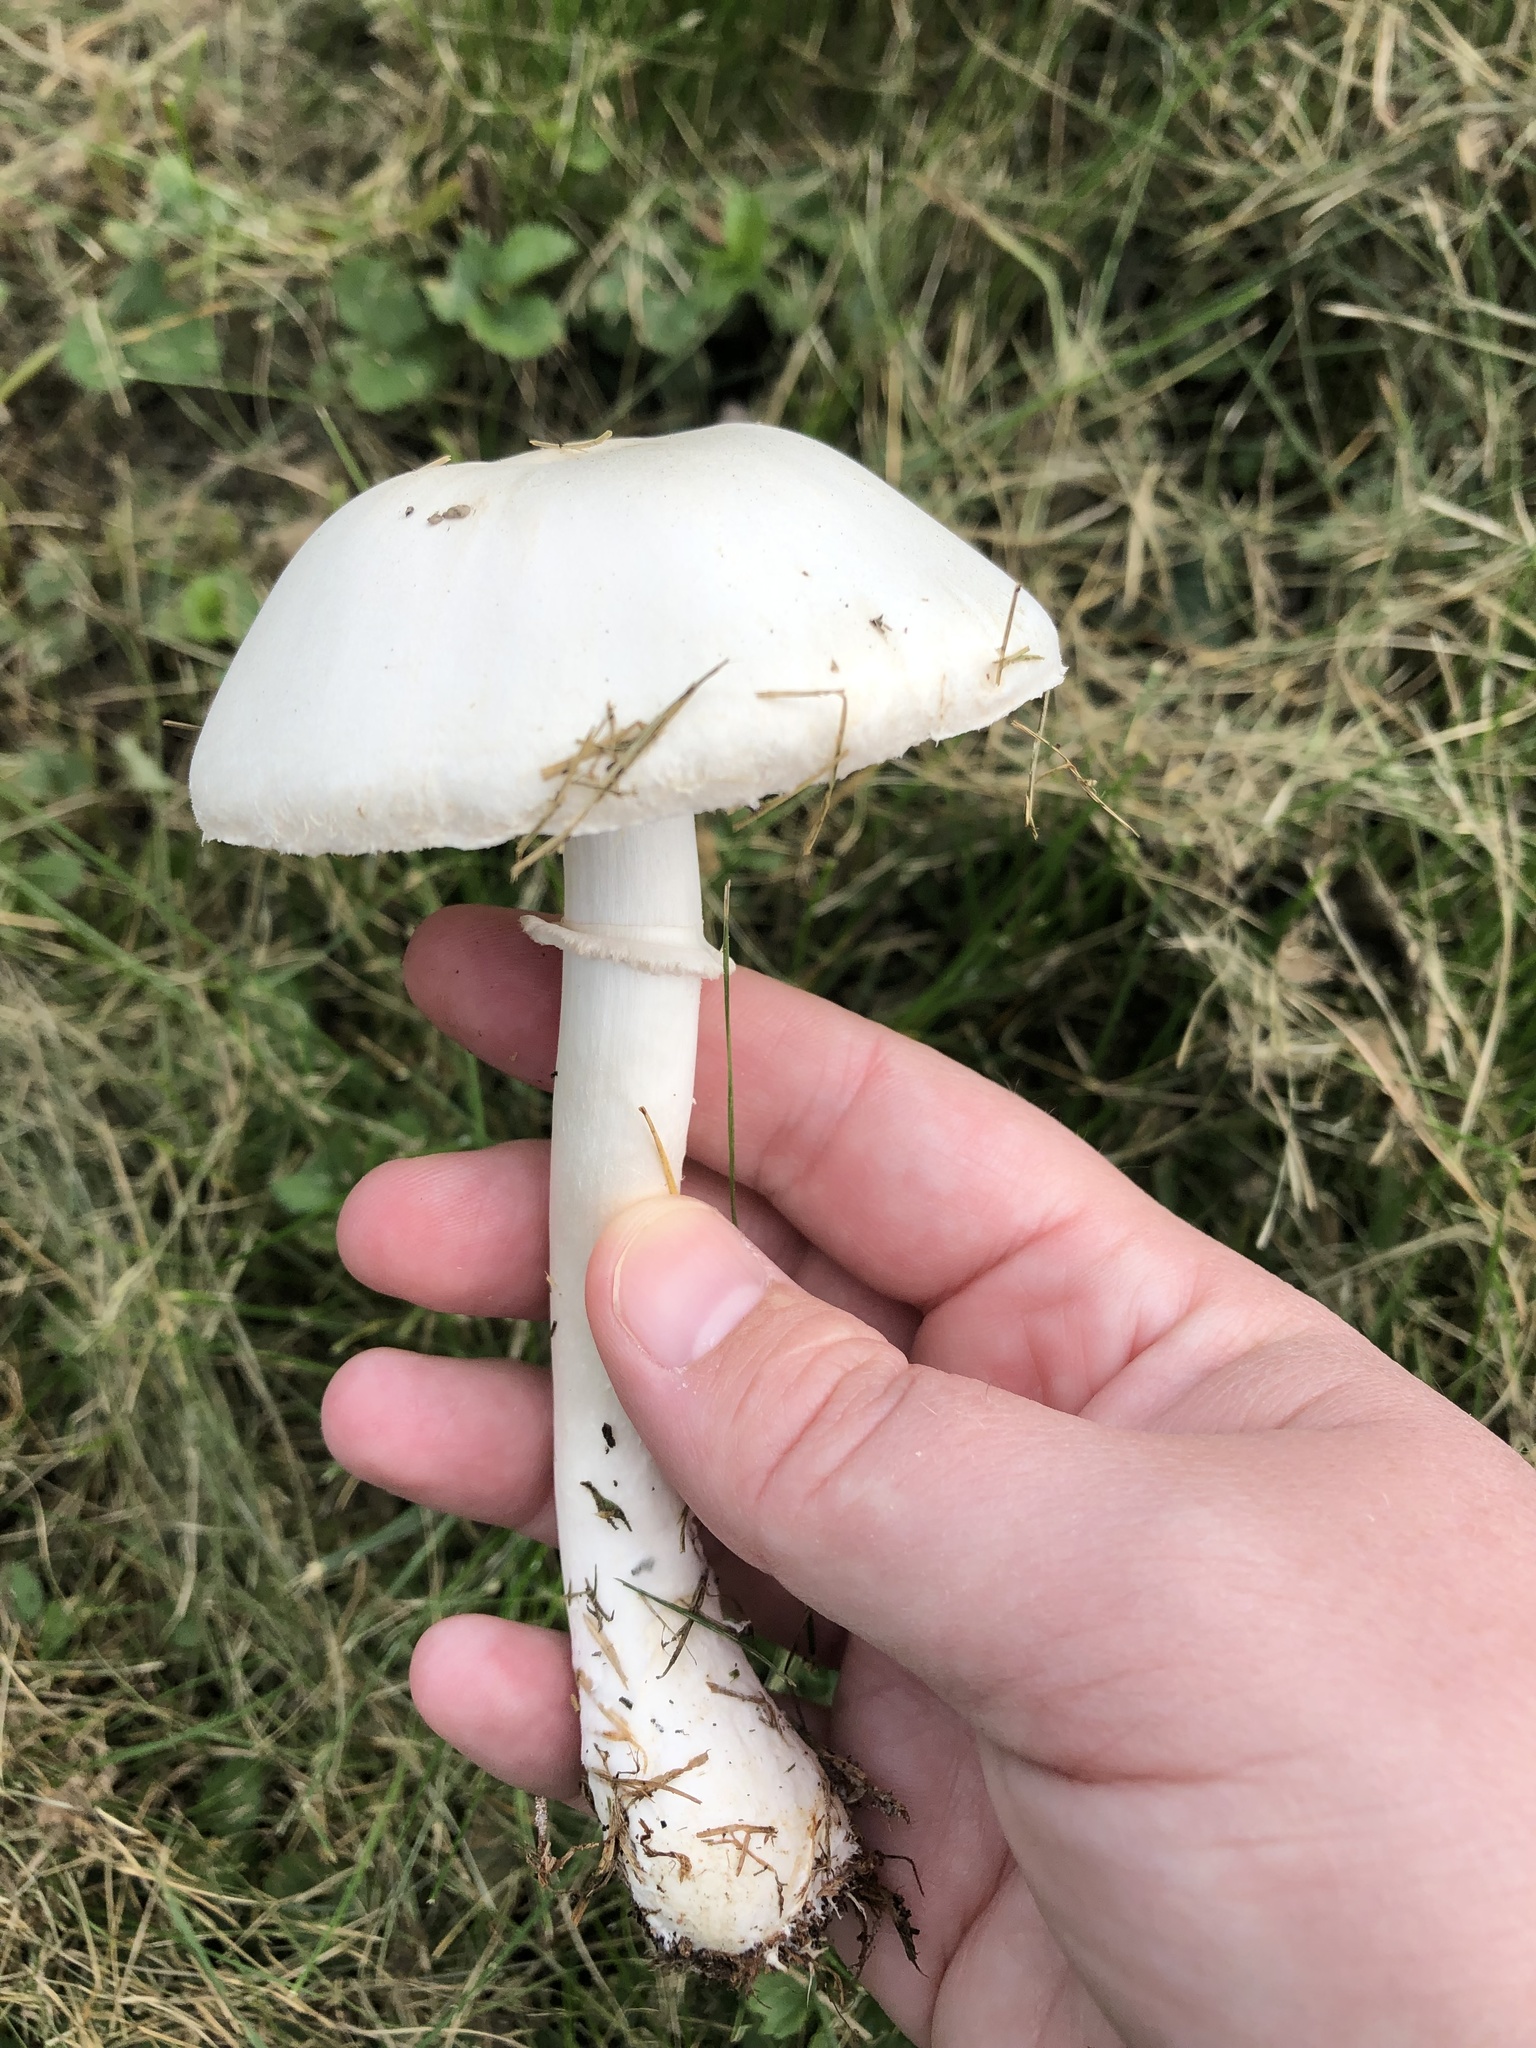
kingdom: Fungi
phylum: Basidiomycota
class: Agaricomycetes
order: Agaricales
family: Agaricaceae
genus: Leucoagaricus
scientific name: Leucoagaricus leucothites
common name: White dapperling
